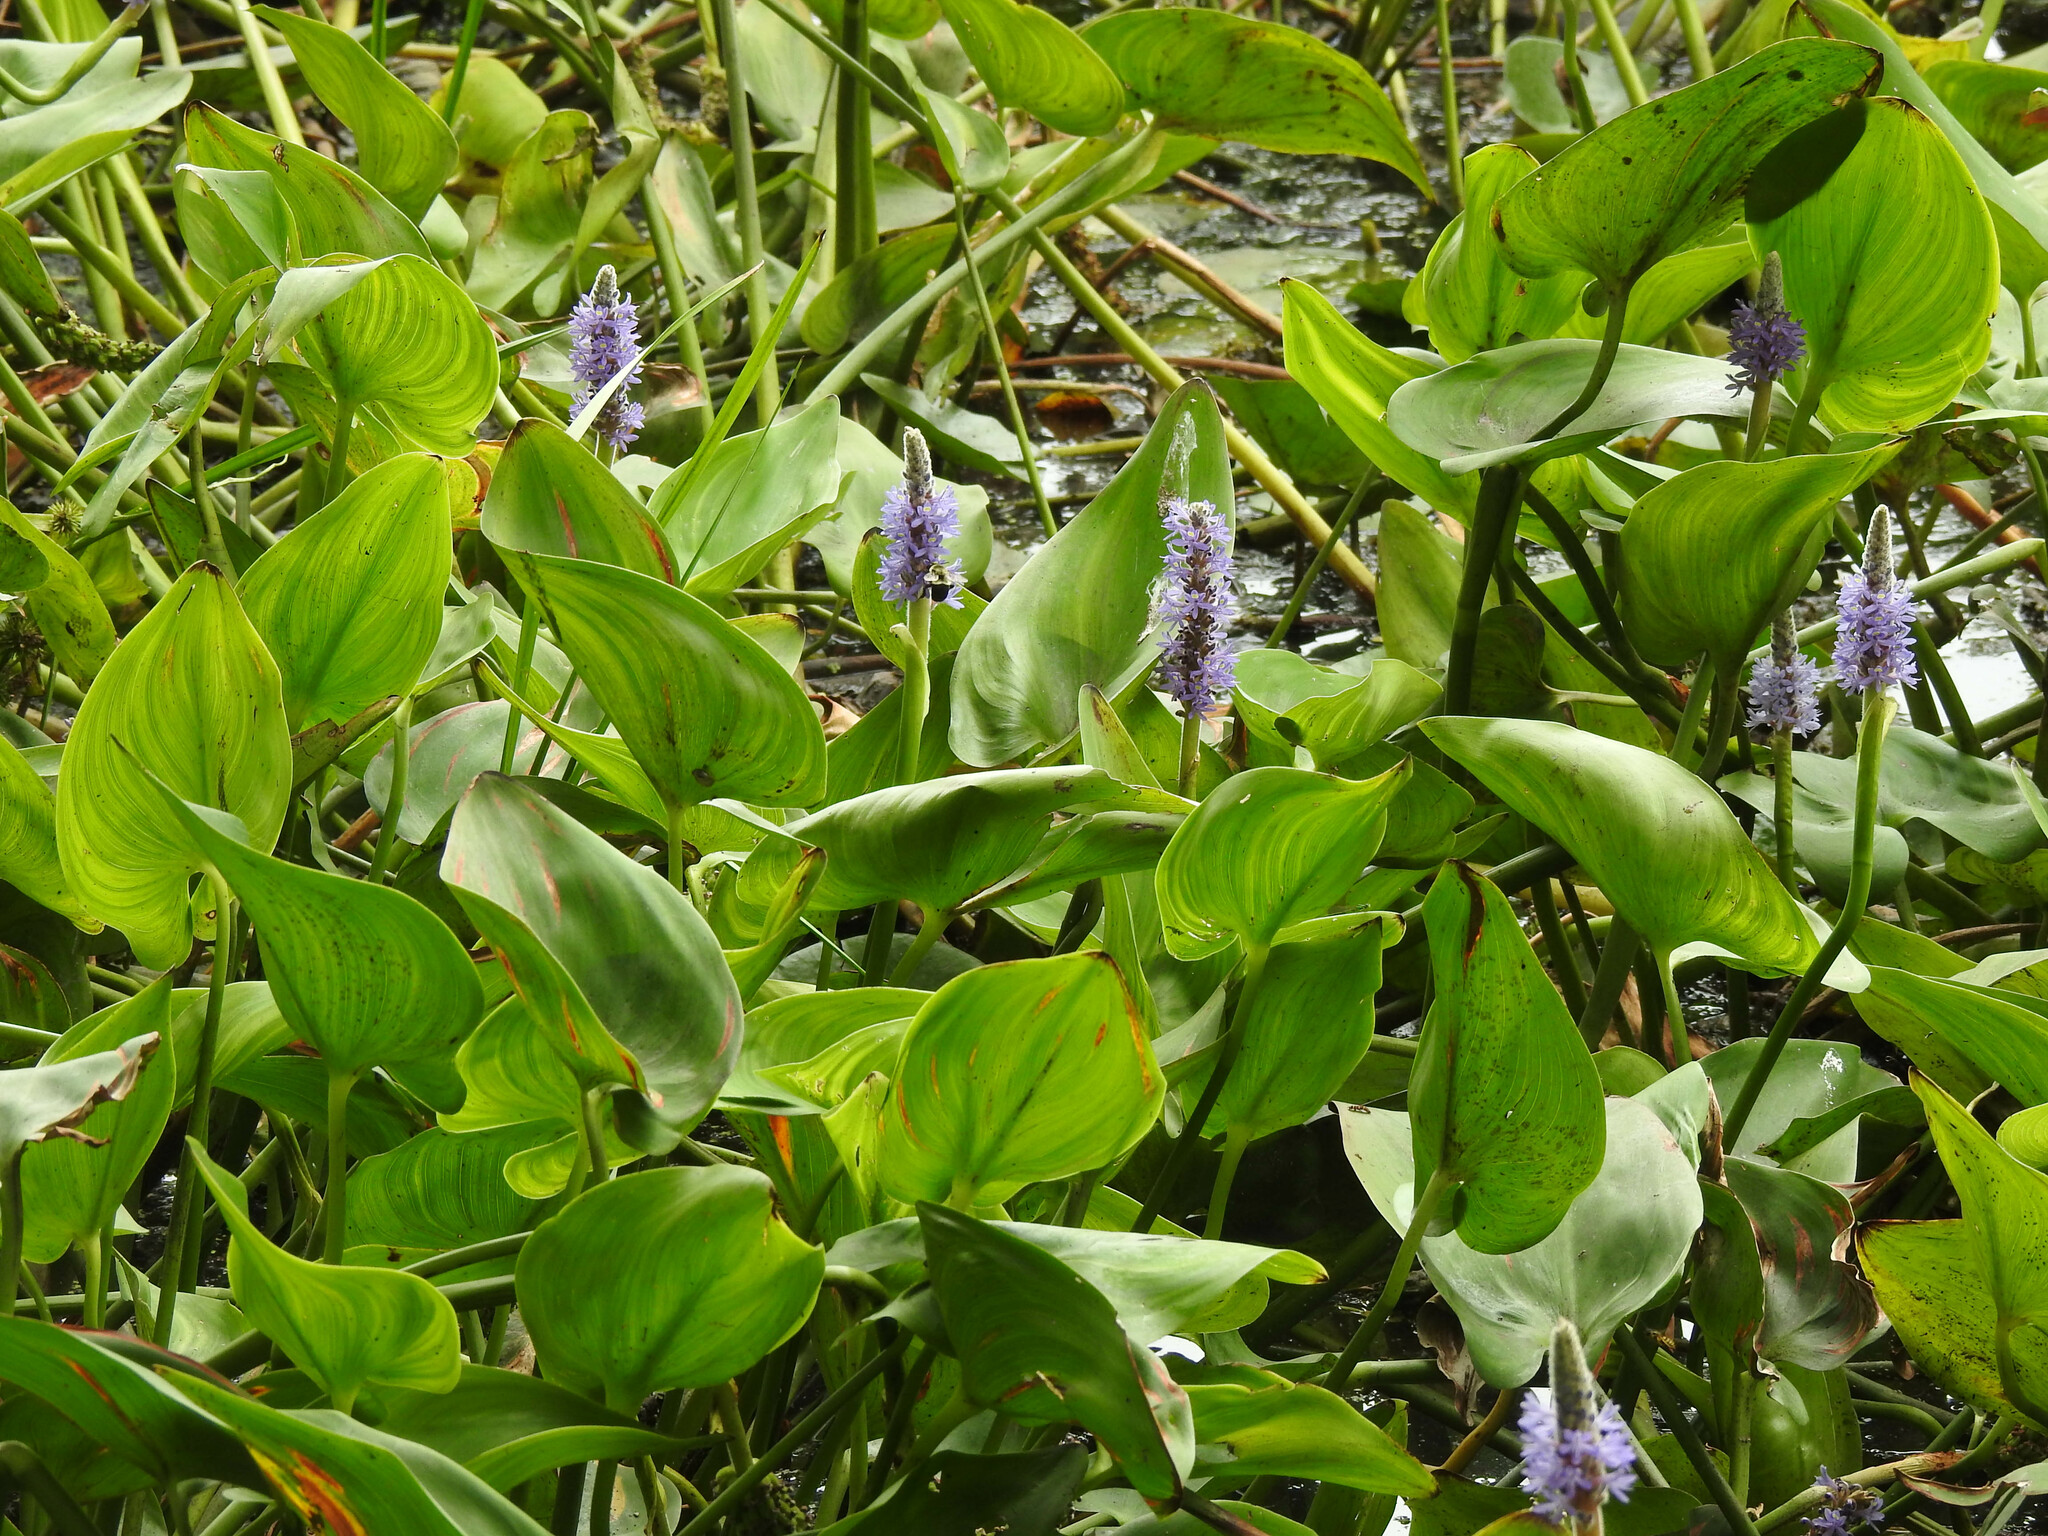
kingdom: Plantae
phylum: Tracheophyta
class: Liliopsida
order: Commelinales
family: Pontederiaceae
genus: Pontederia
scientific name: Pontederia cordata
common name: Pickerelweed
